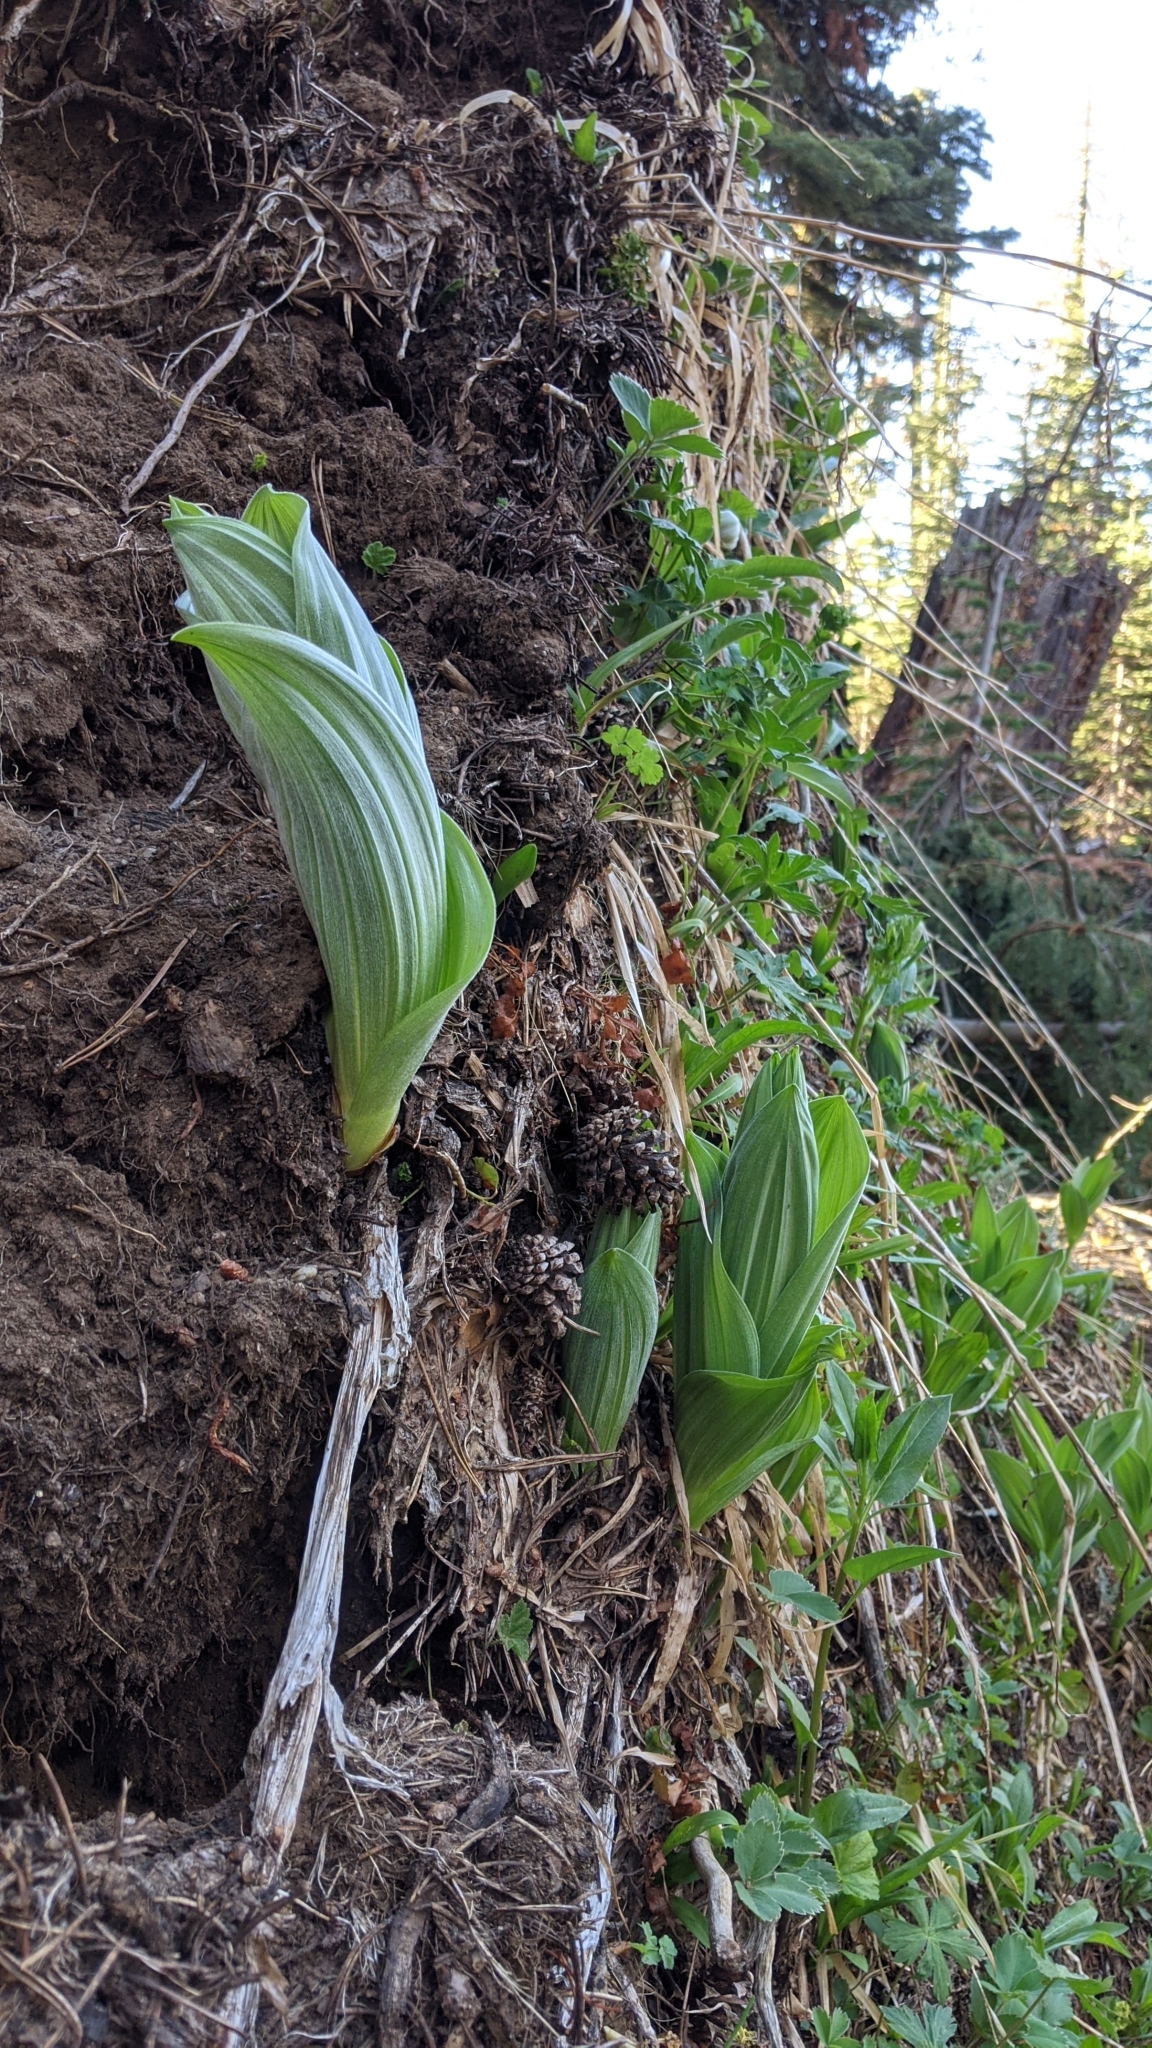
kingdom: Plantae
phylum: Tracheophyta
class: Liliopsida
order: Liliales
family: Melanthiaceae
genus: Veratrum
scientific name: Veratrum californicum
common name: California veratrum
